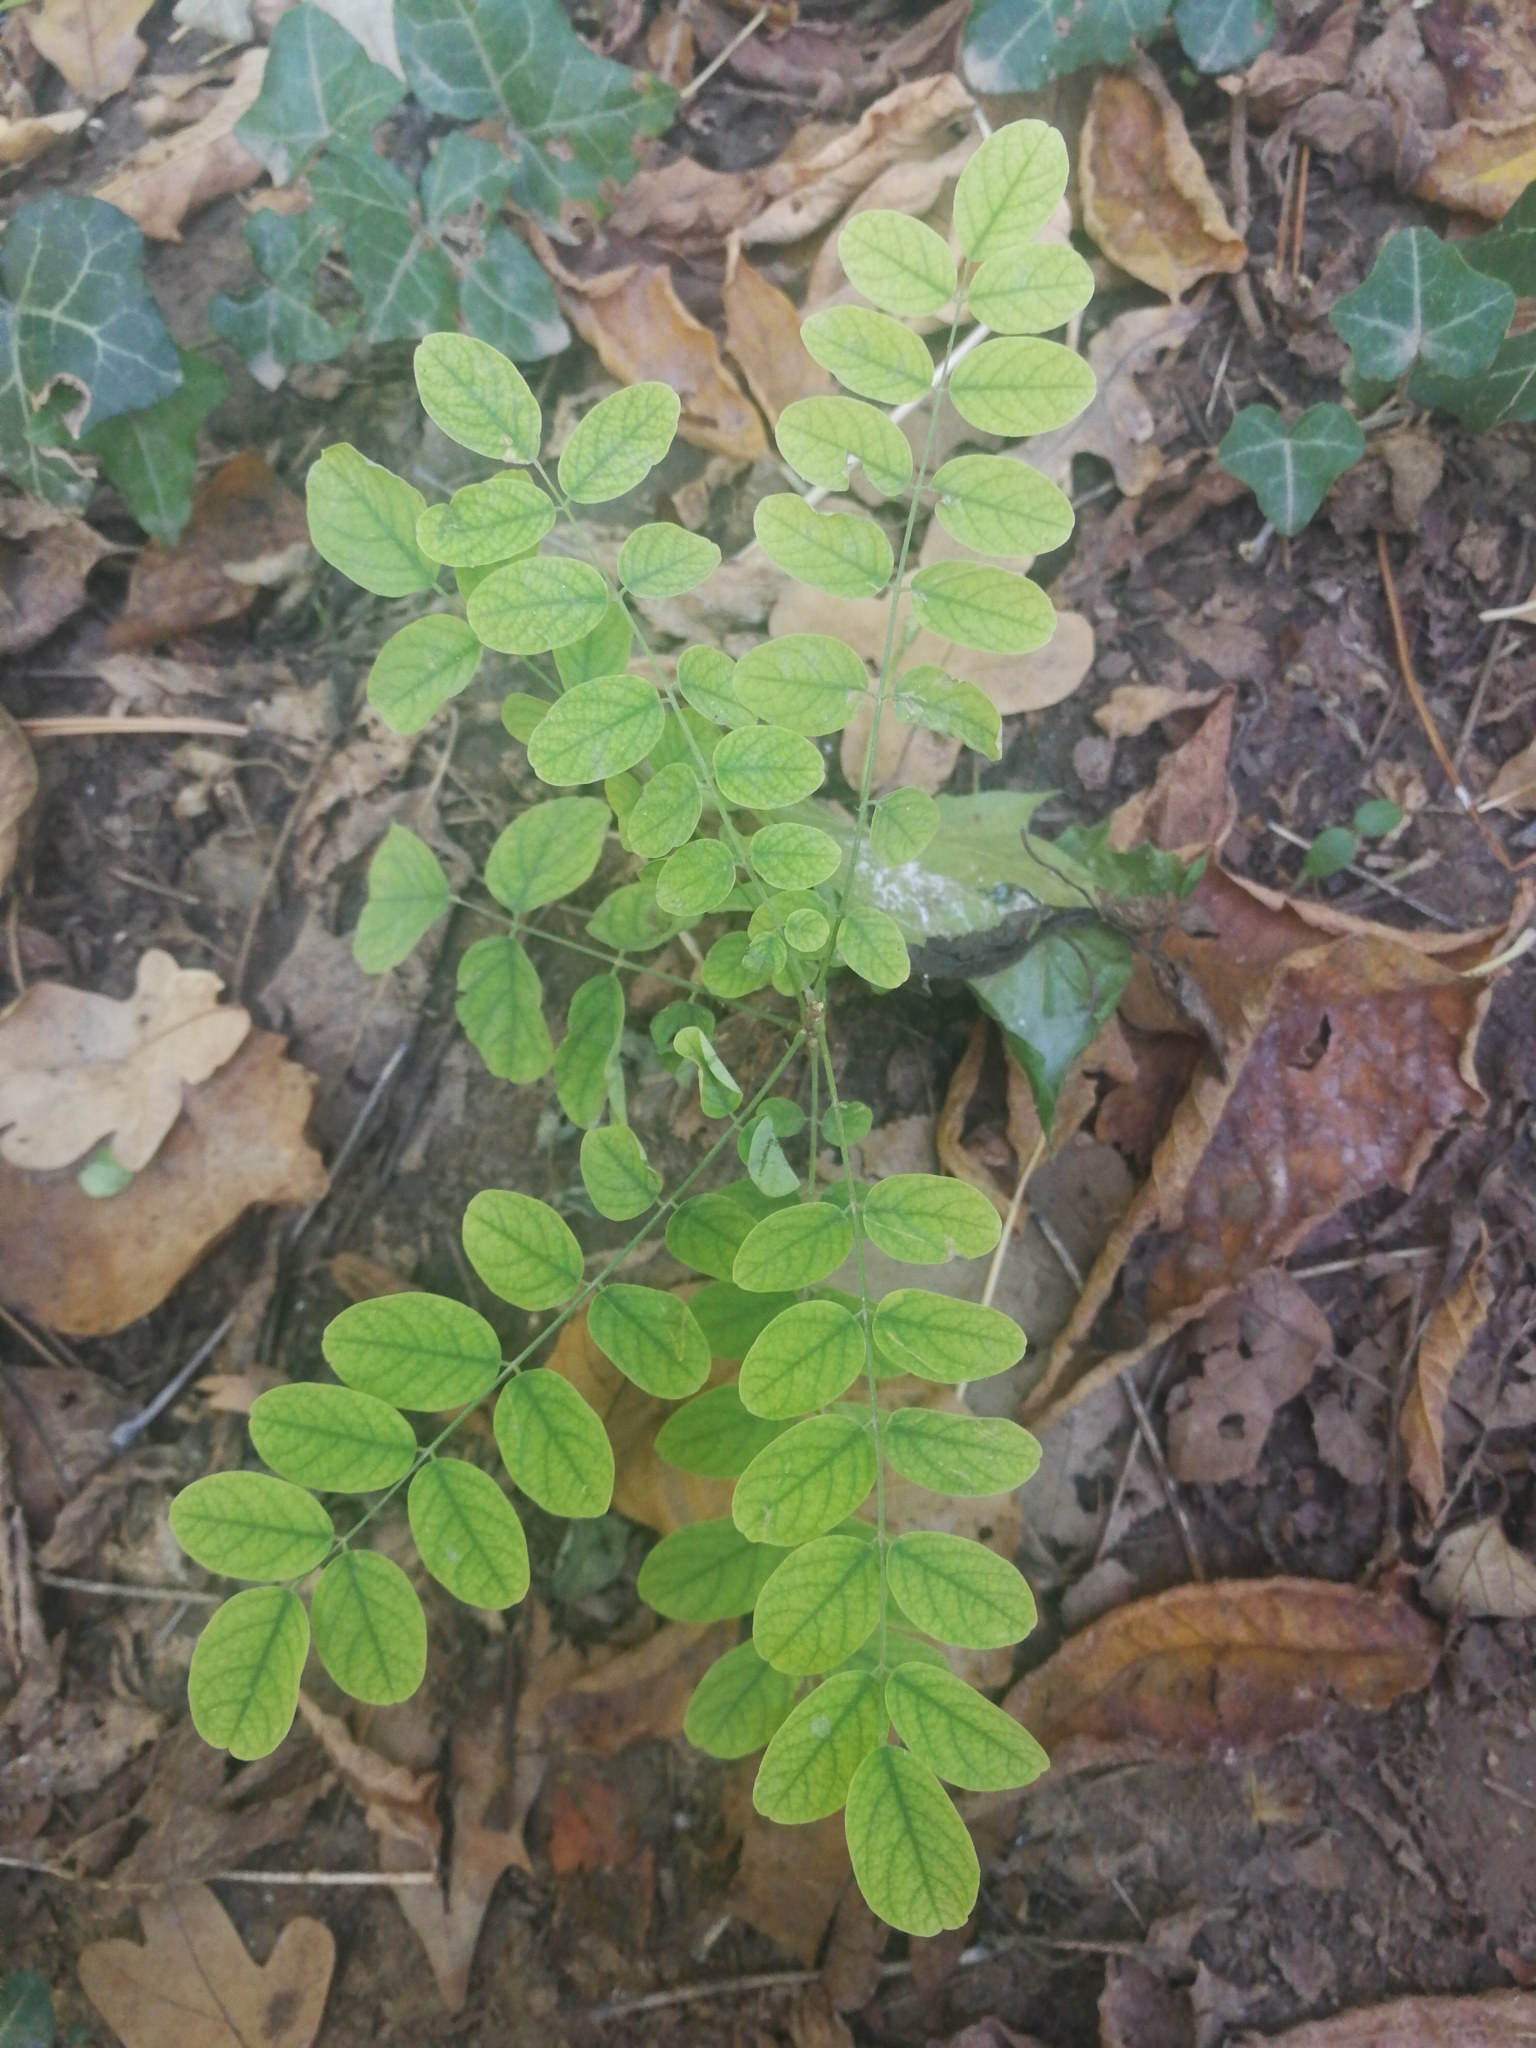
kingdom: Plantae
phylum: Tracheophyta
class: Magnoliopsida
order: Fabales
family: Fabaceae
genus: Robinia
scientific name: Robinia pseudoacacia
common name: Black locust
